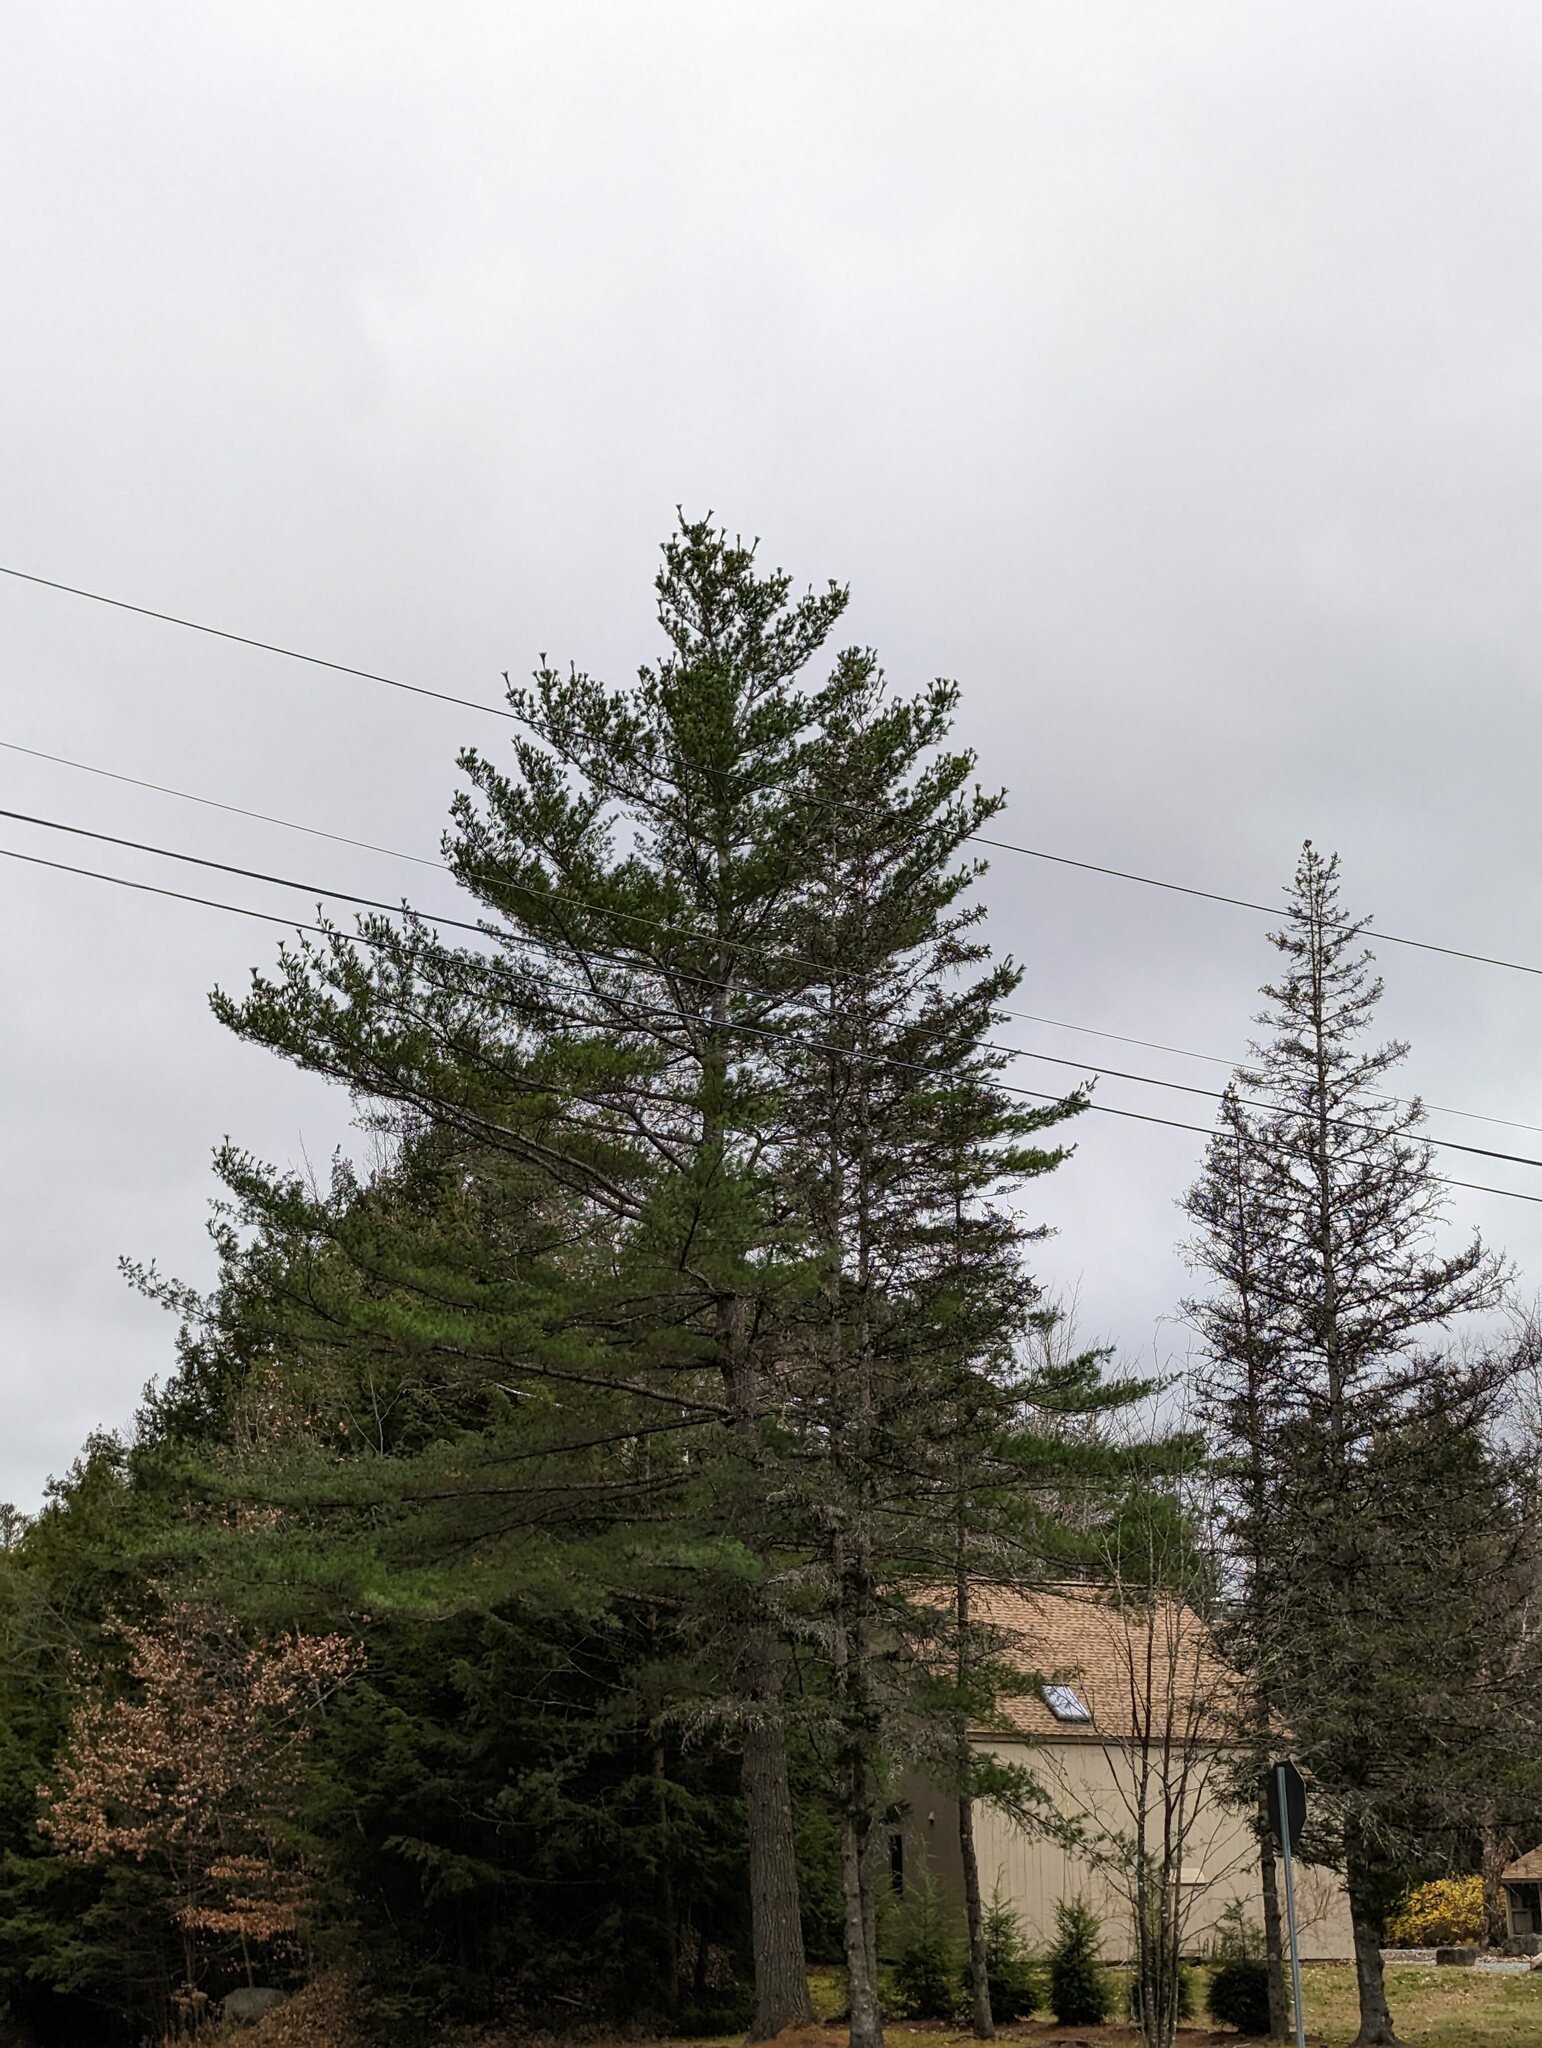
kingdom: Plantae
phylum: Tracheophyta
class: Pinopsida
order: Pinales
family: Pinaceae
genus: Pinus
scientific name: Pinus strobus
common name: Weymouth pine
